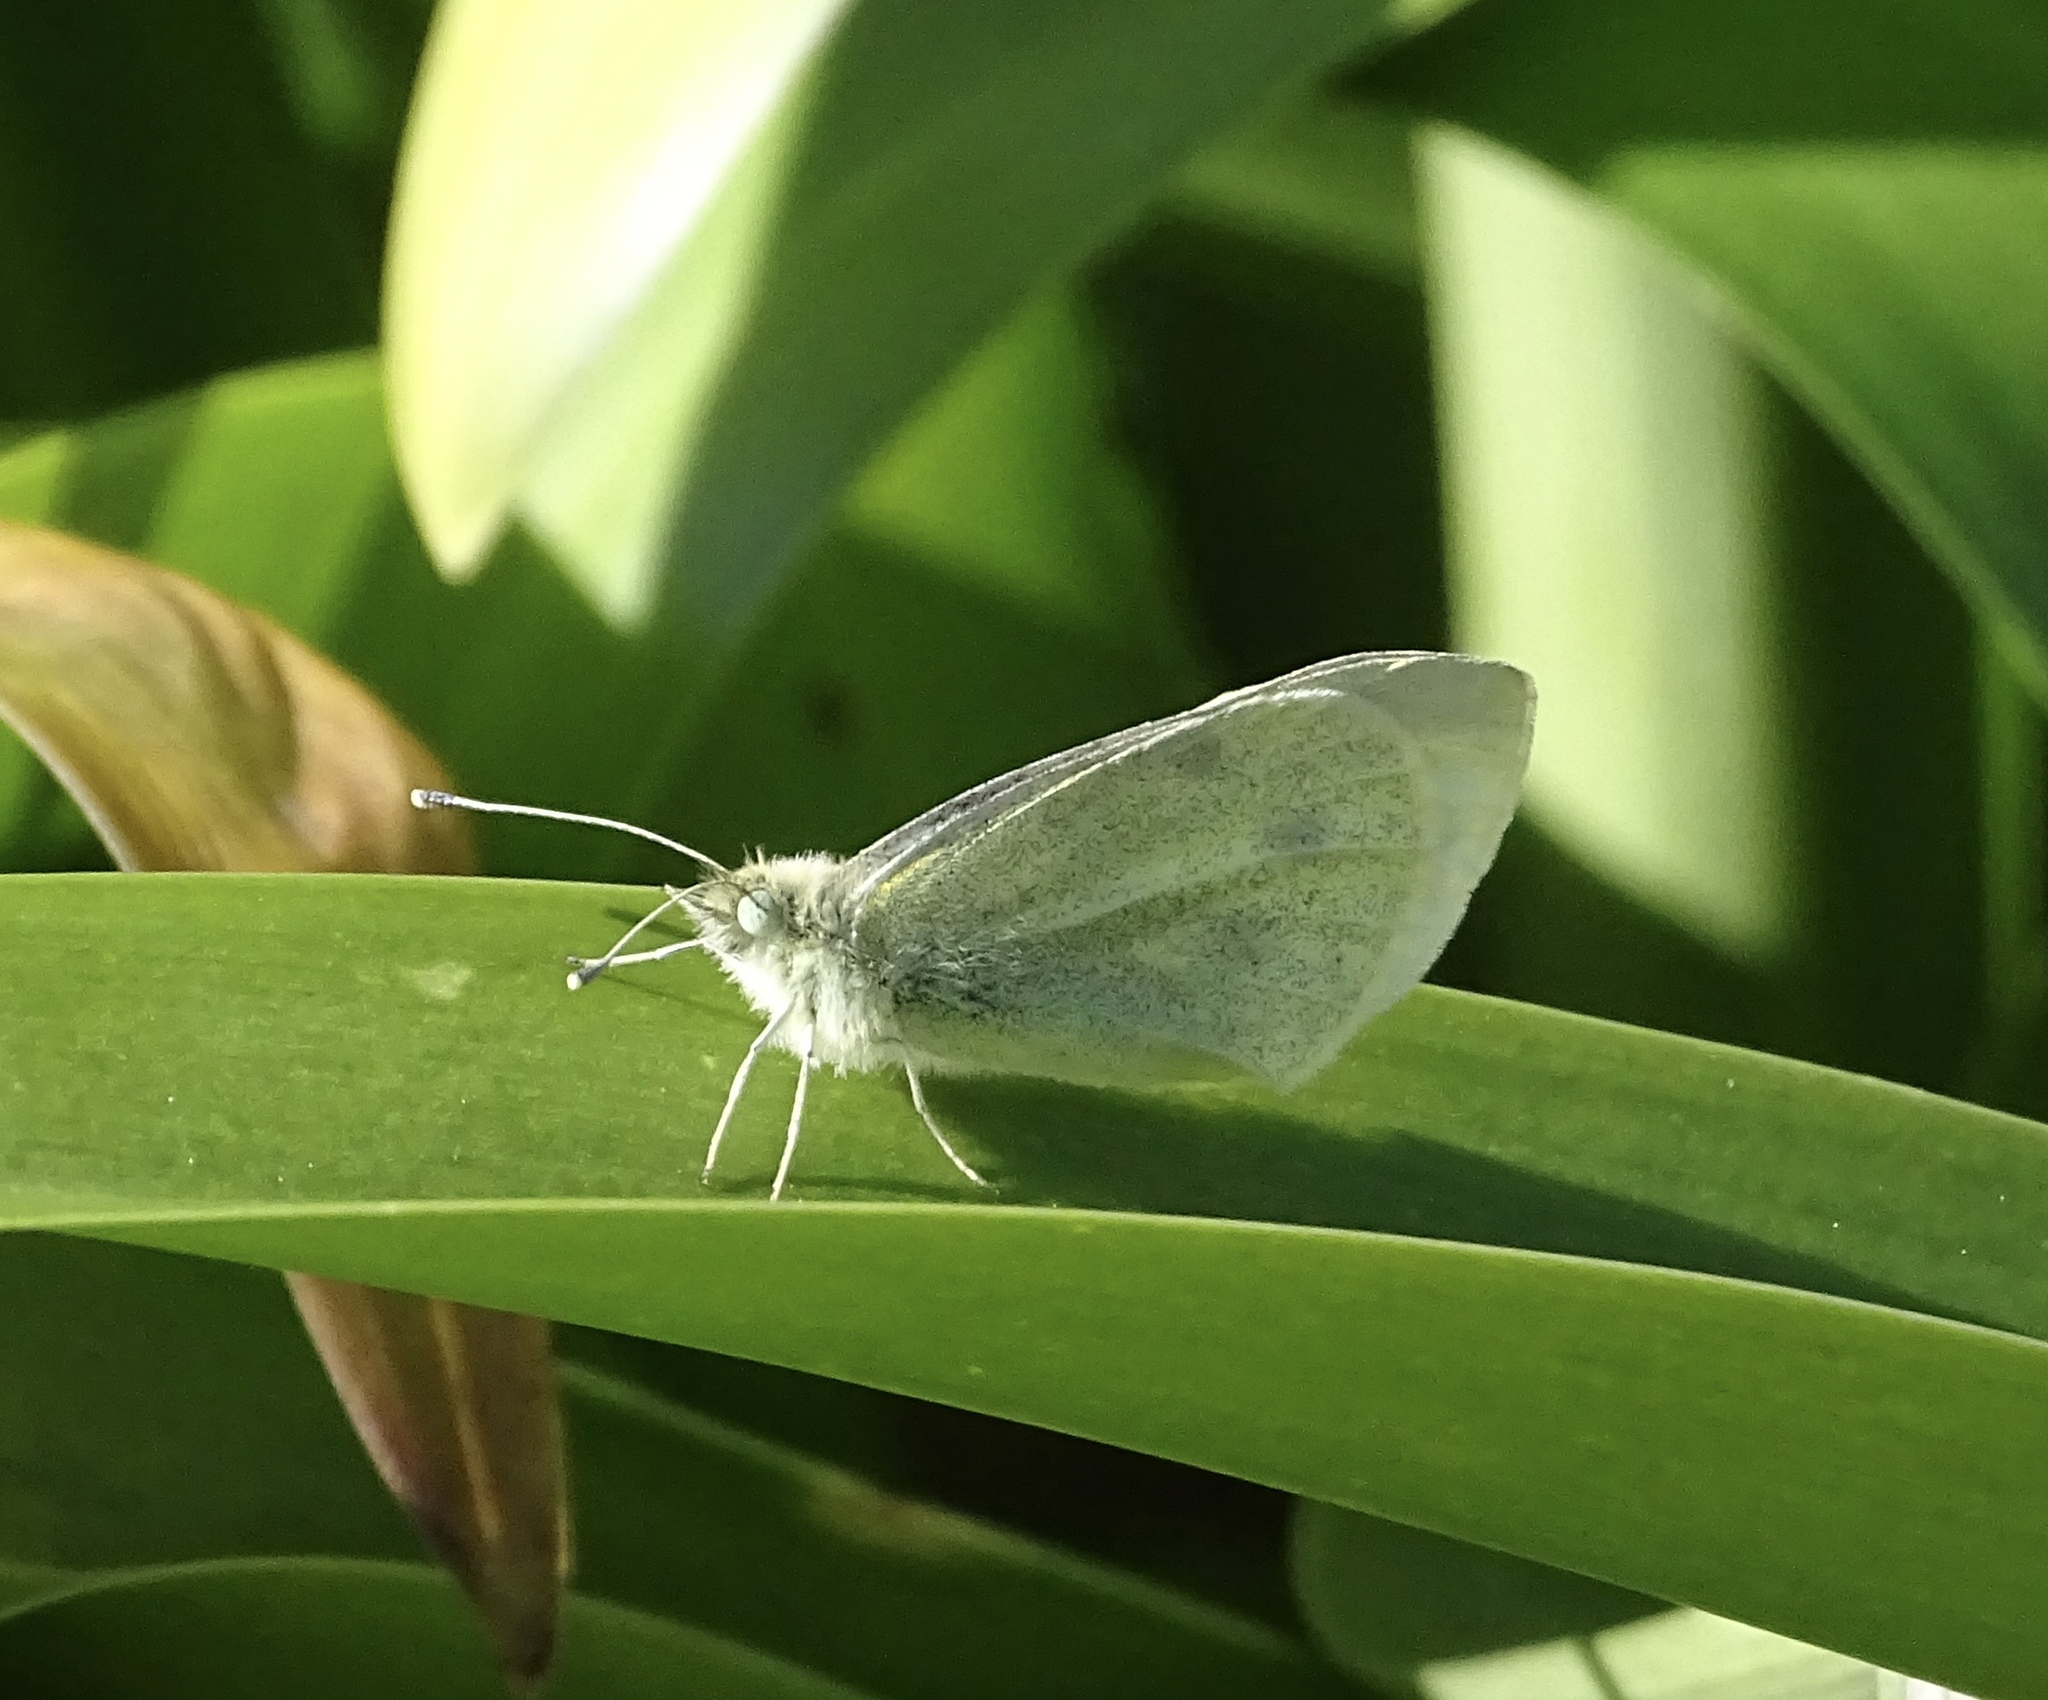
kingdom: Animalia
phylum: Arthropoda
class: Insecta
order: Lepidoptera
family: Pieridae
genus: Pieris
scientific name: Pieris rapae
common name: Small white
